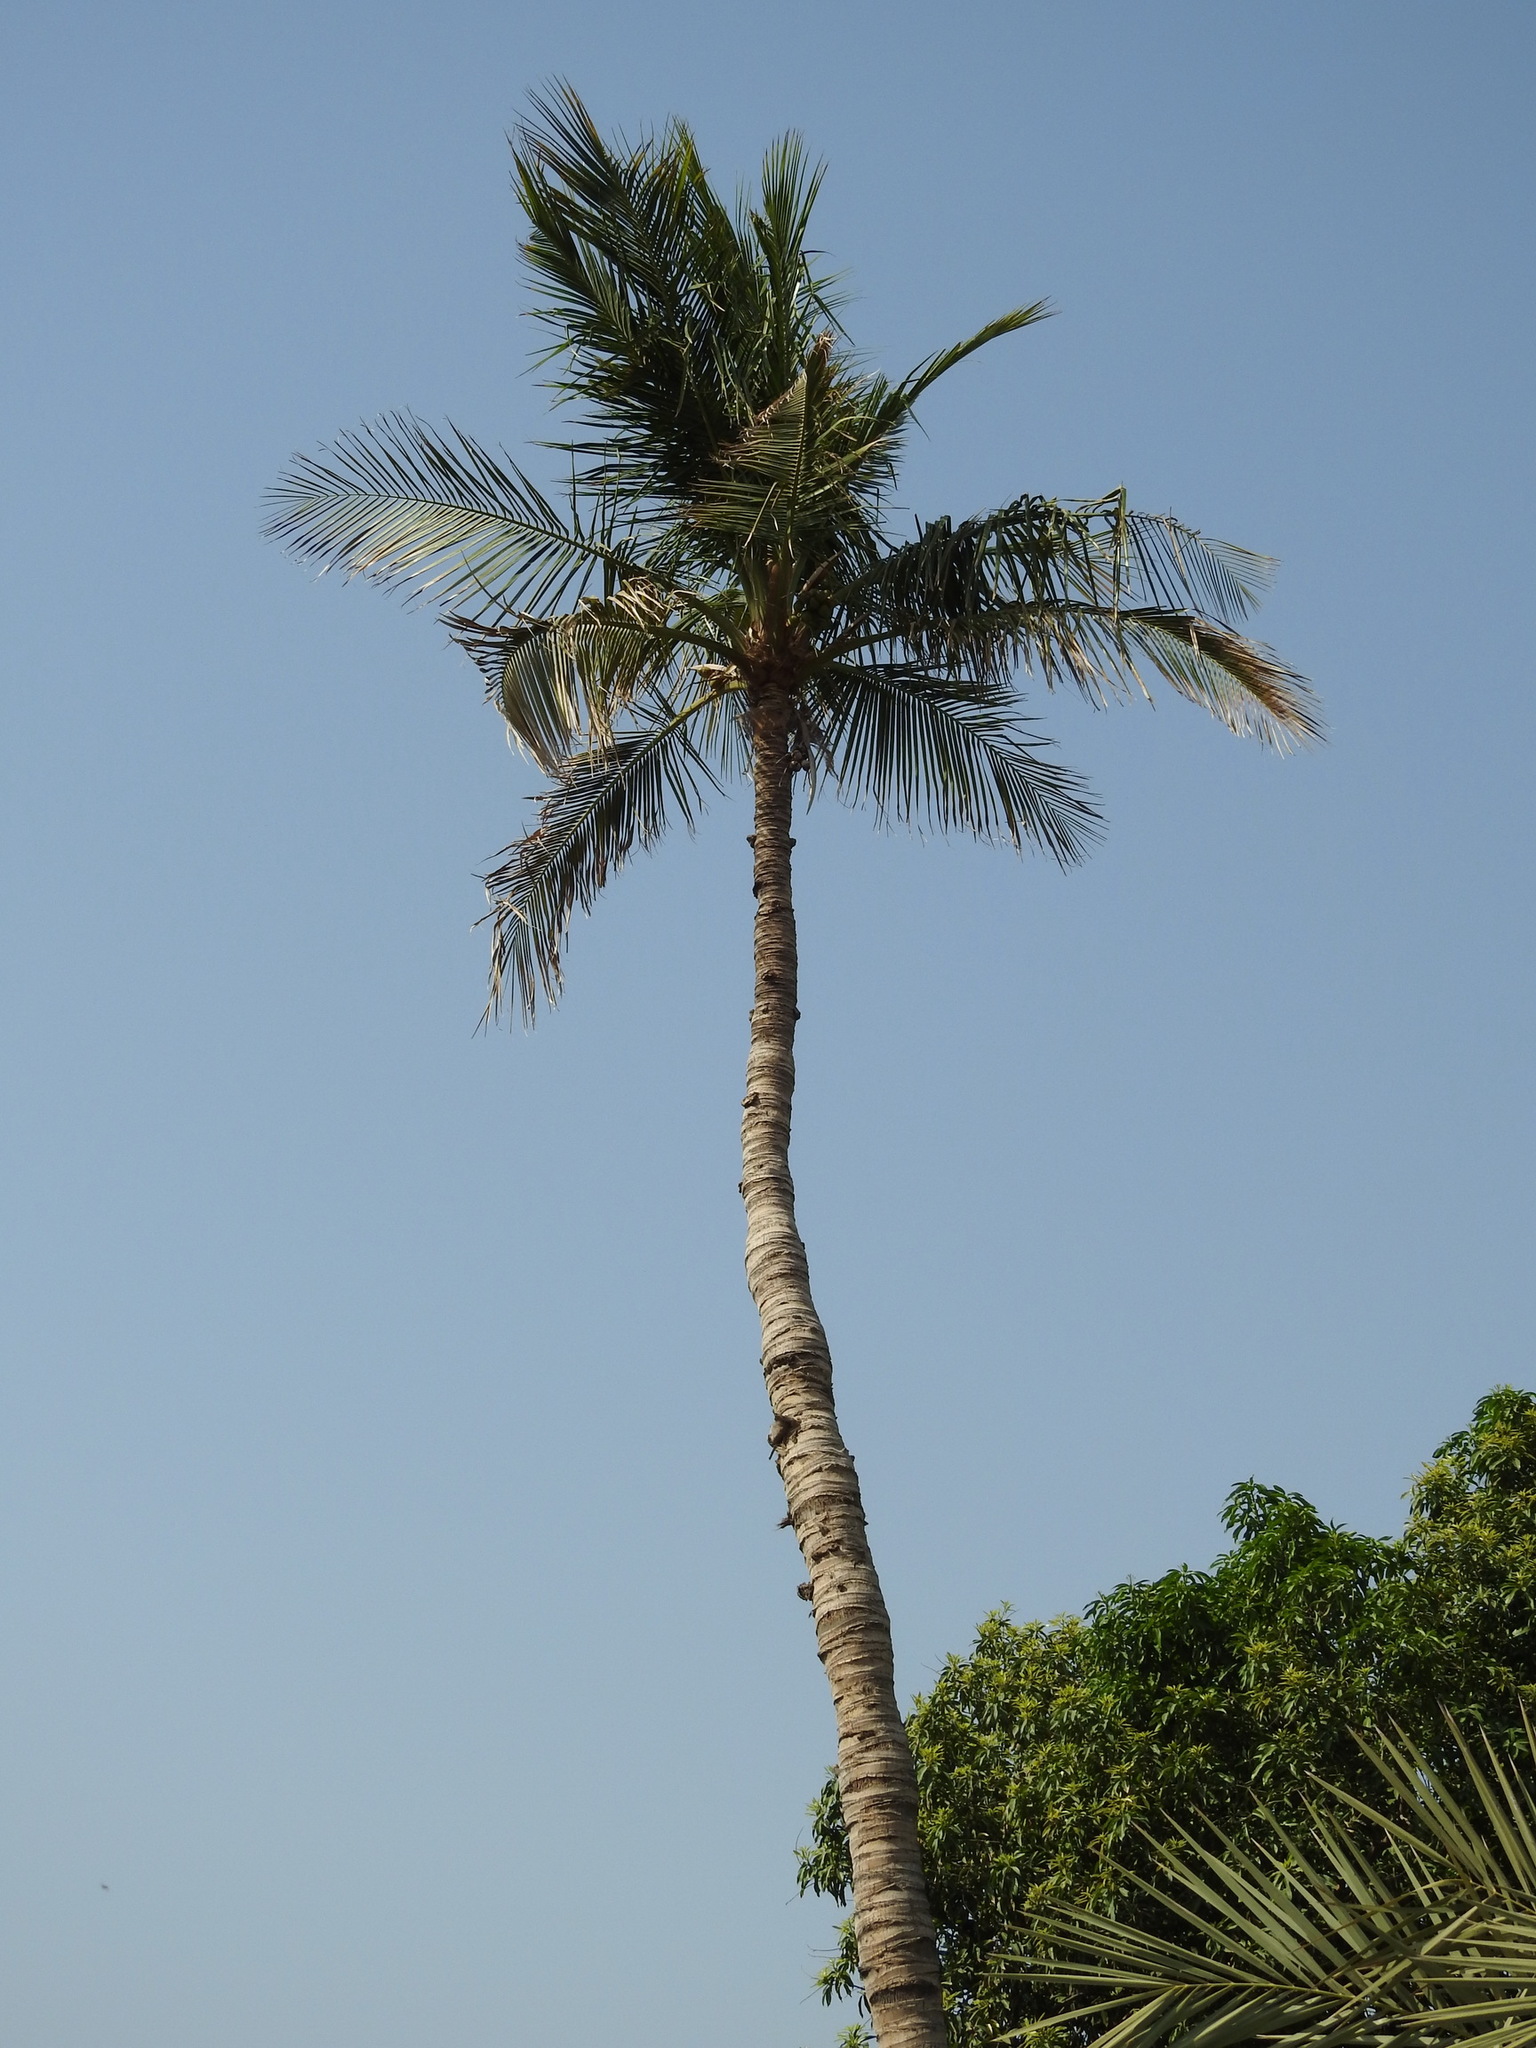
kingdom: Plantae
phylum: Tracheophyta
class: Liliopsida
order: Arecales
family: Arecaceae
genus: Cocos
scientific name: Cocos nucifera
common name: Coconut palm
